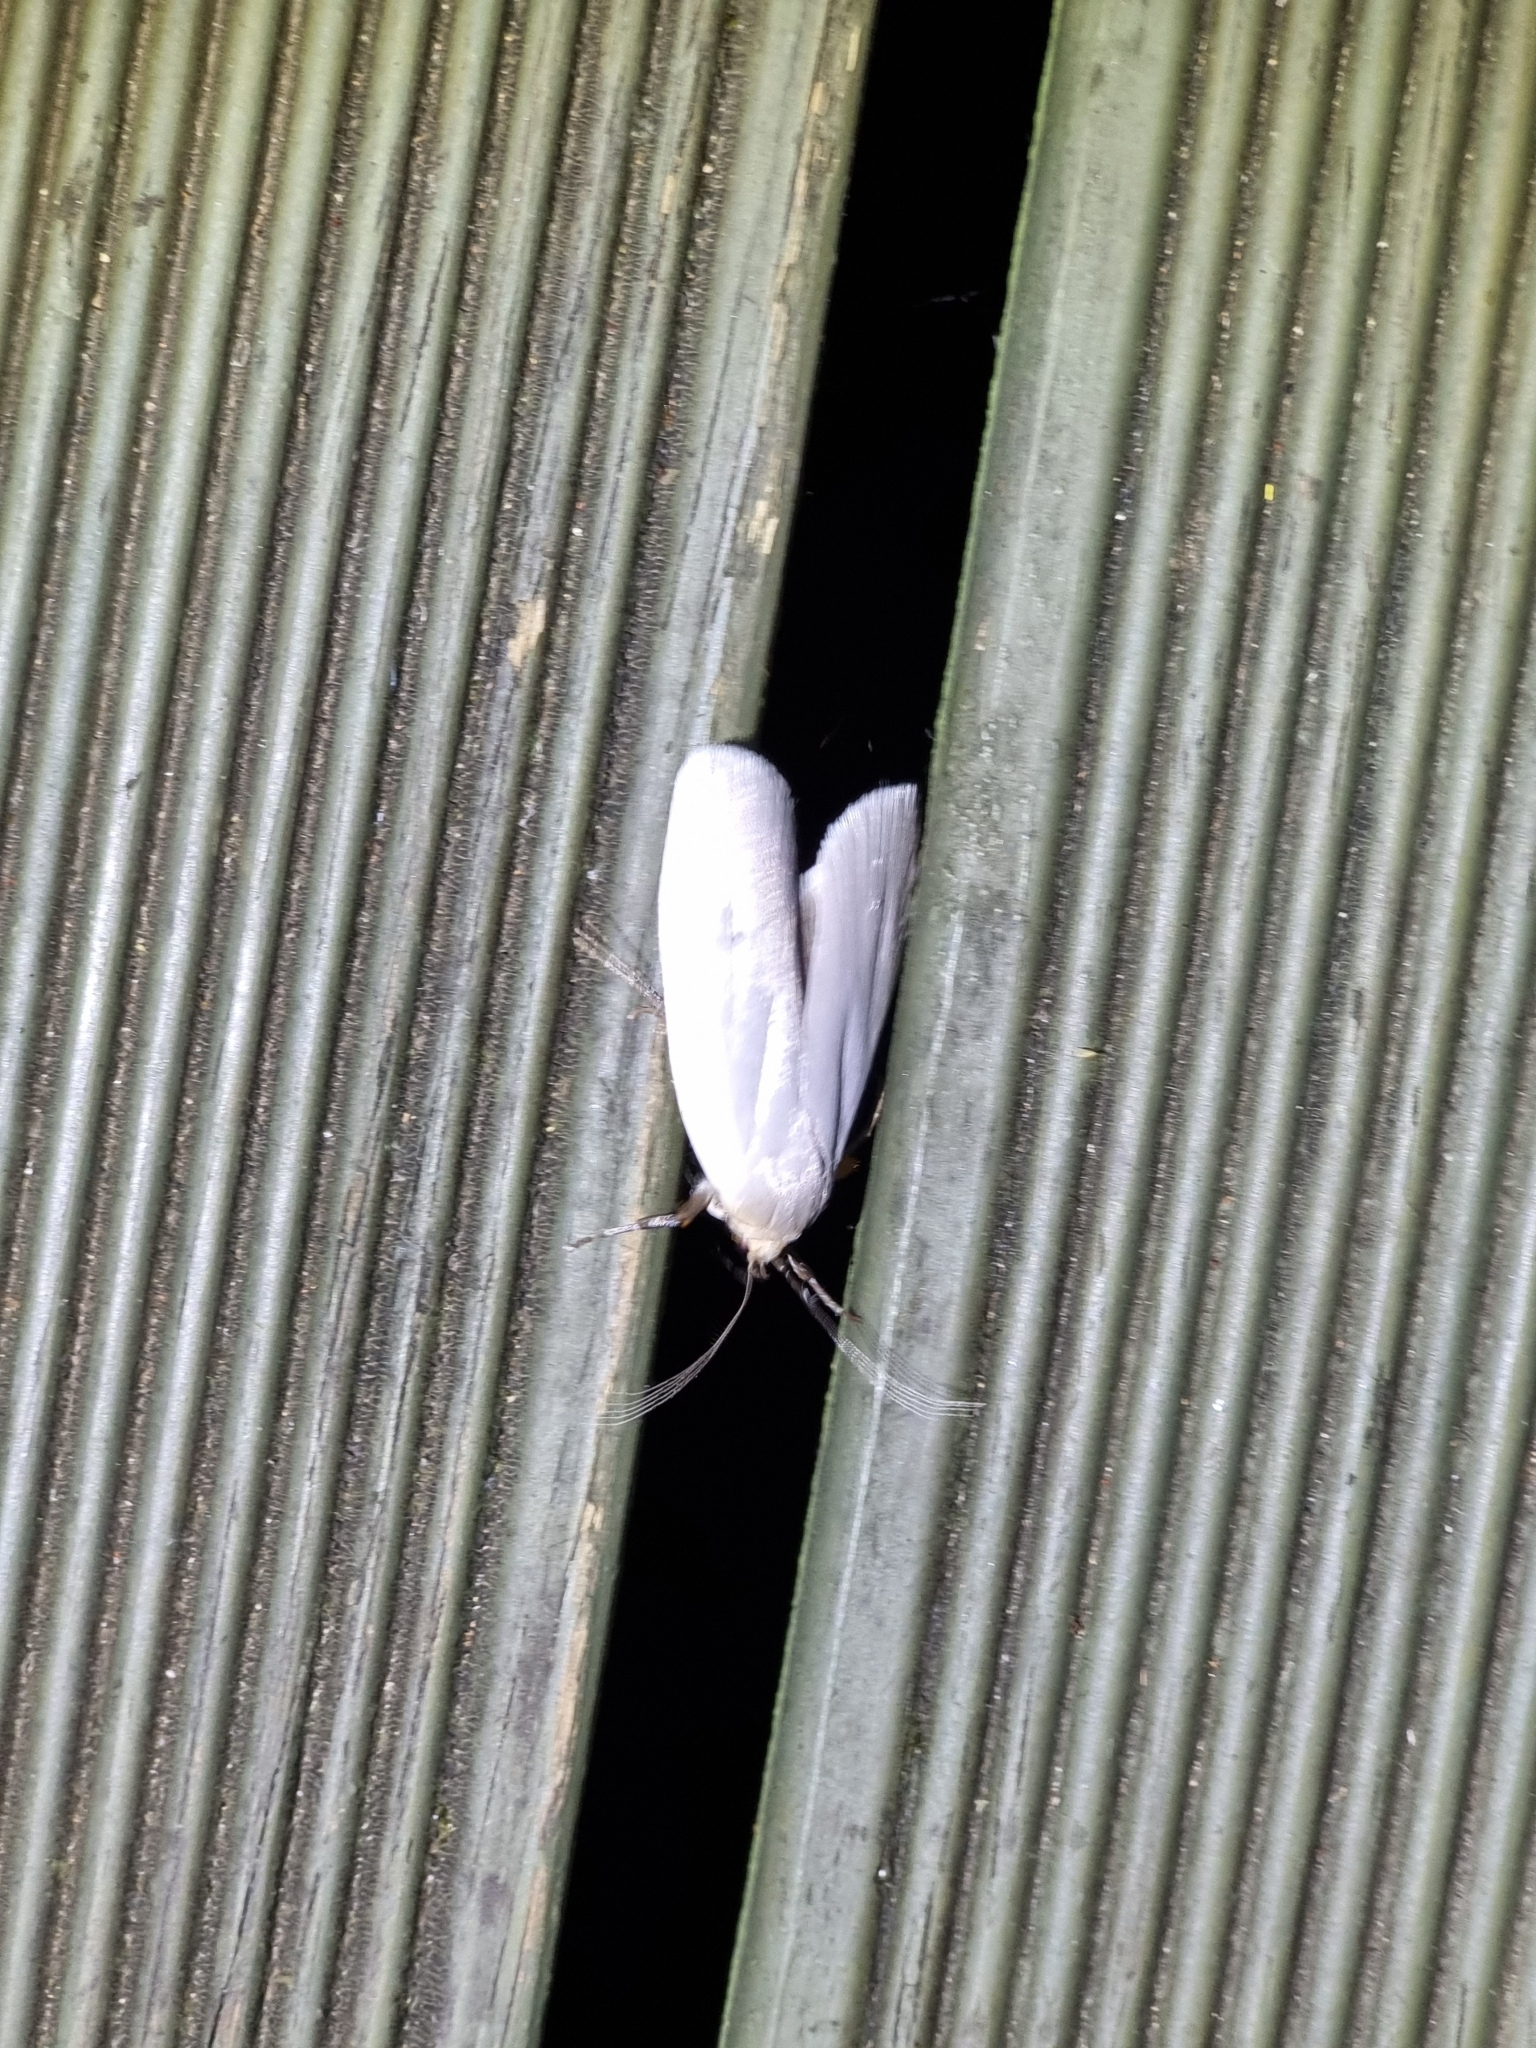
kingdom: Animalia
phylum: Arthropoda
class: Insecta
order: Lepidoptera
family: Xyloryctidae
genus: Maroga
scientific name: Maroga melanostigma
